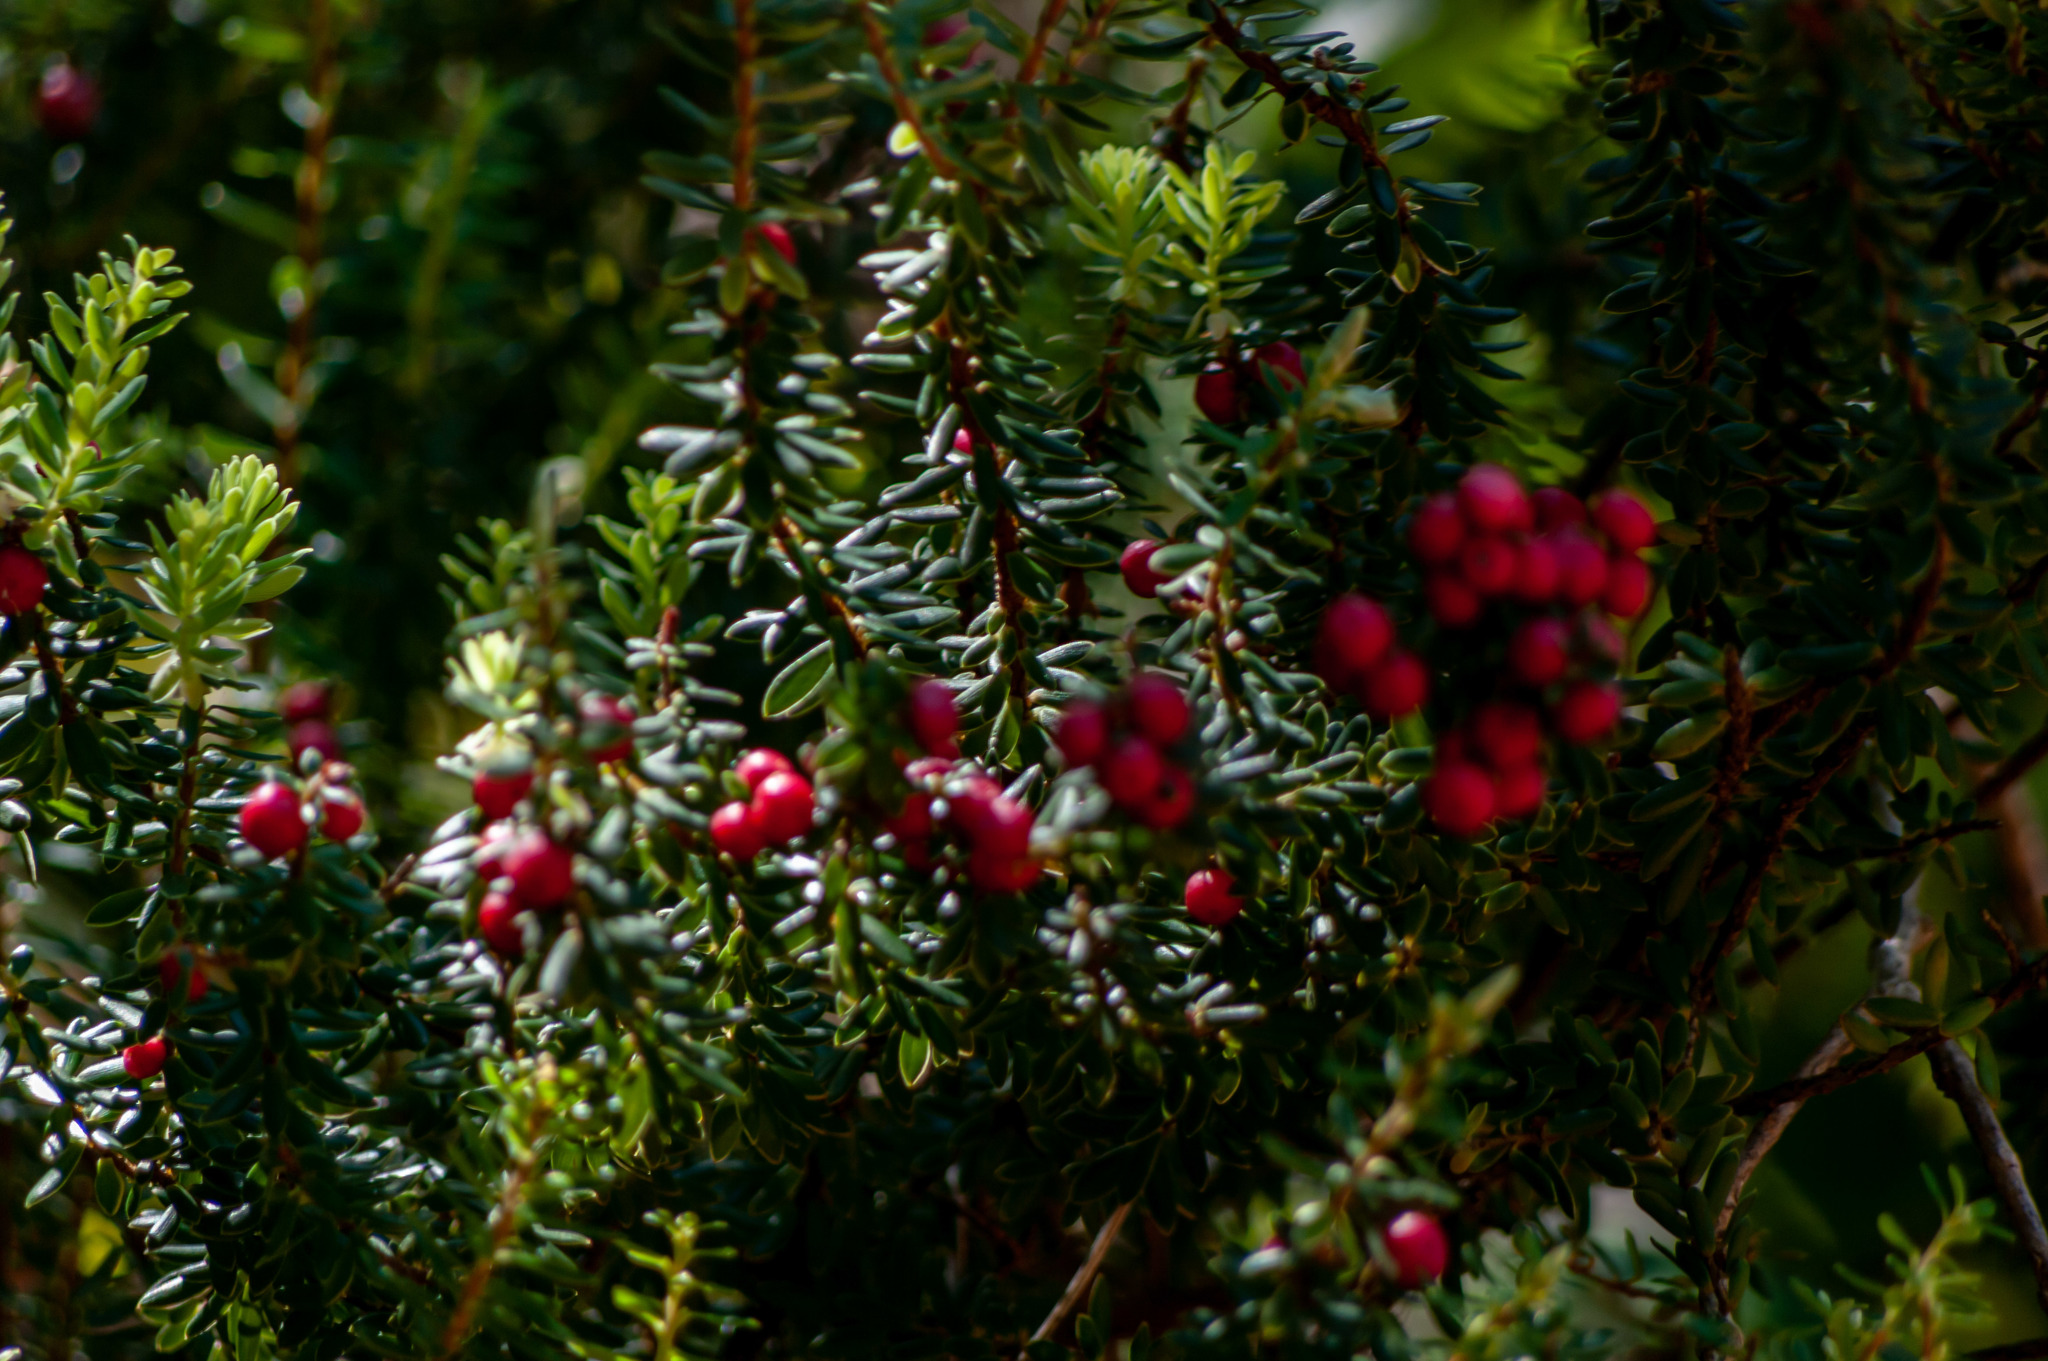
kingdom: Plantae
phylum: Tracheophyta
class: Magnoliopsida
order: Ericales
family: Ericaceae
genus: Leptecophylla
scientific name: Leptecophylla tameiameiae
